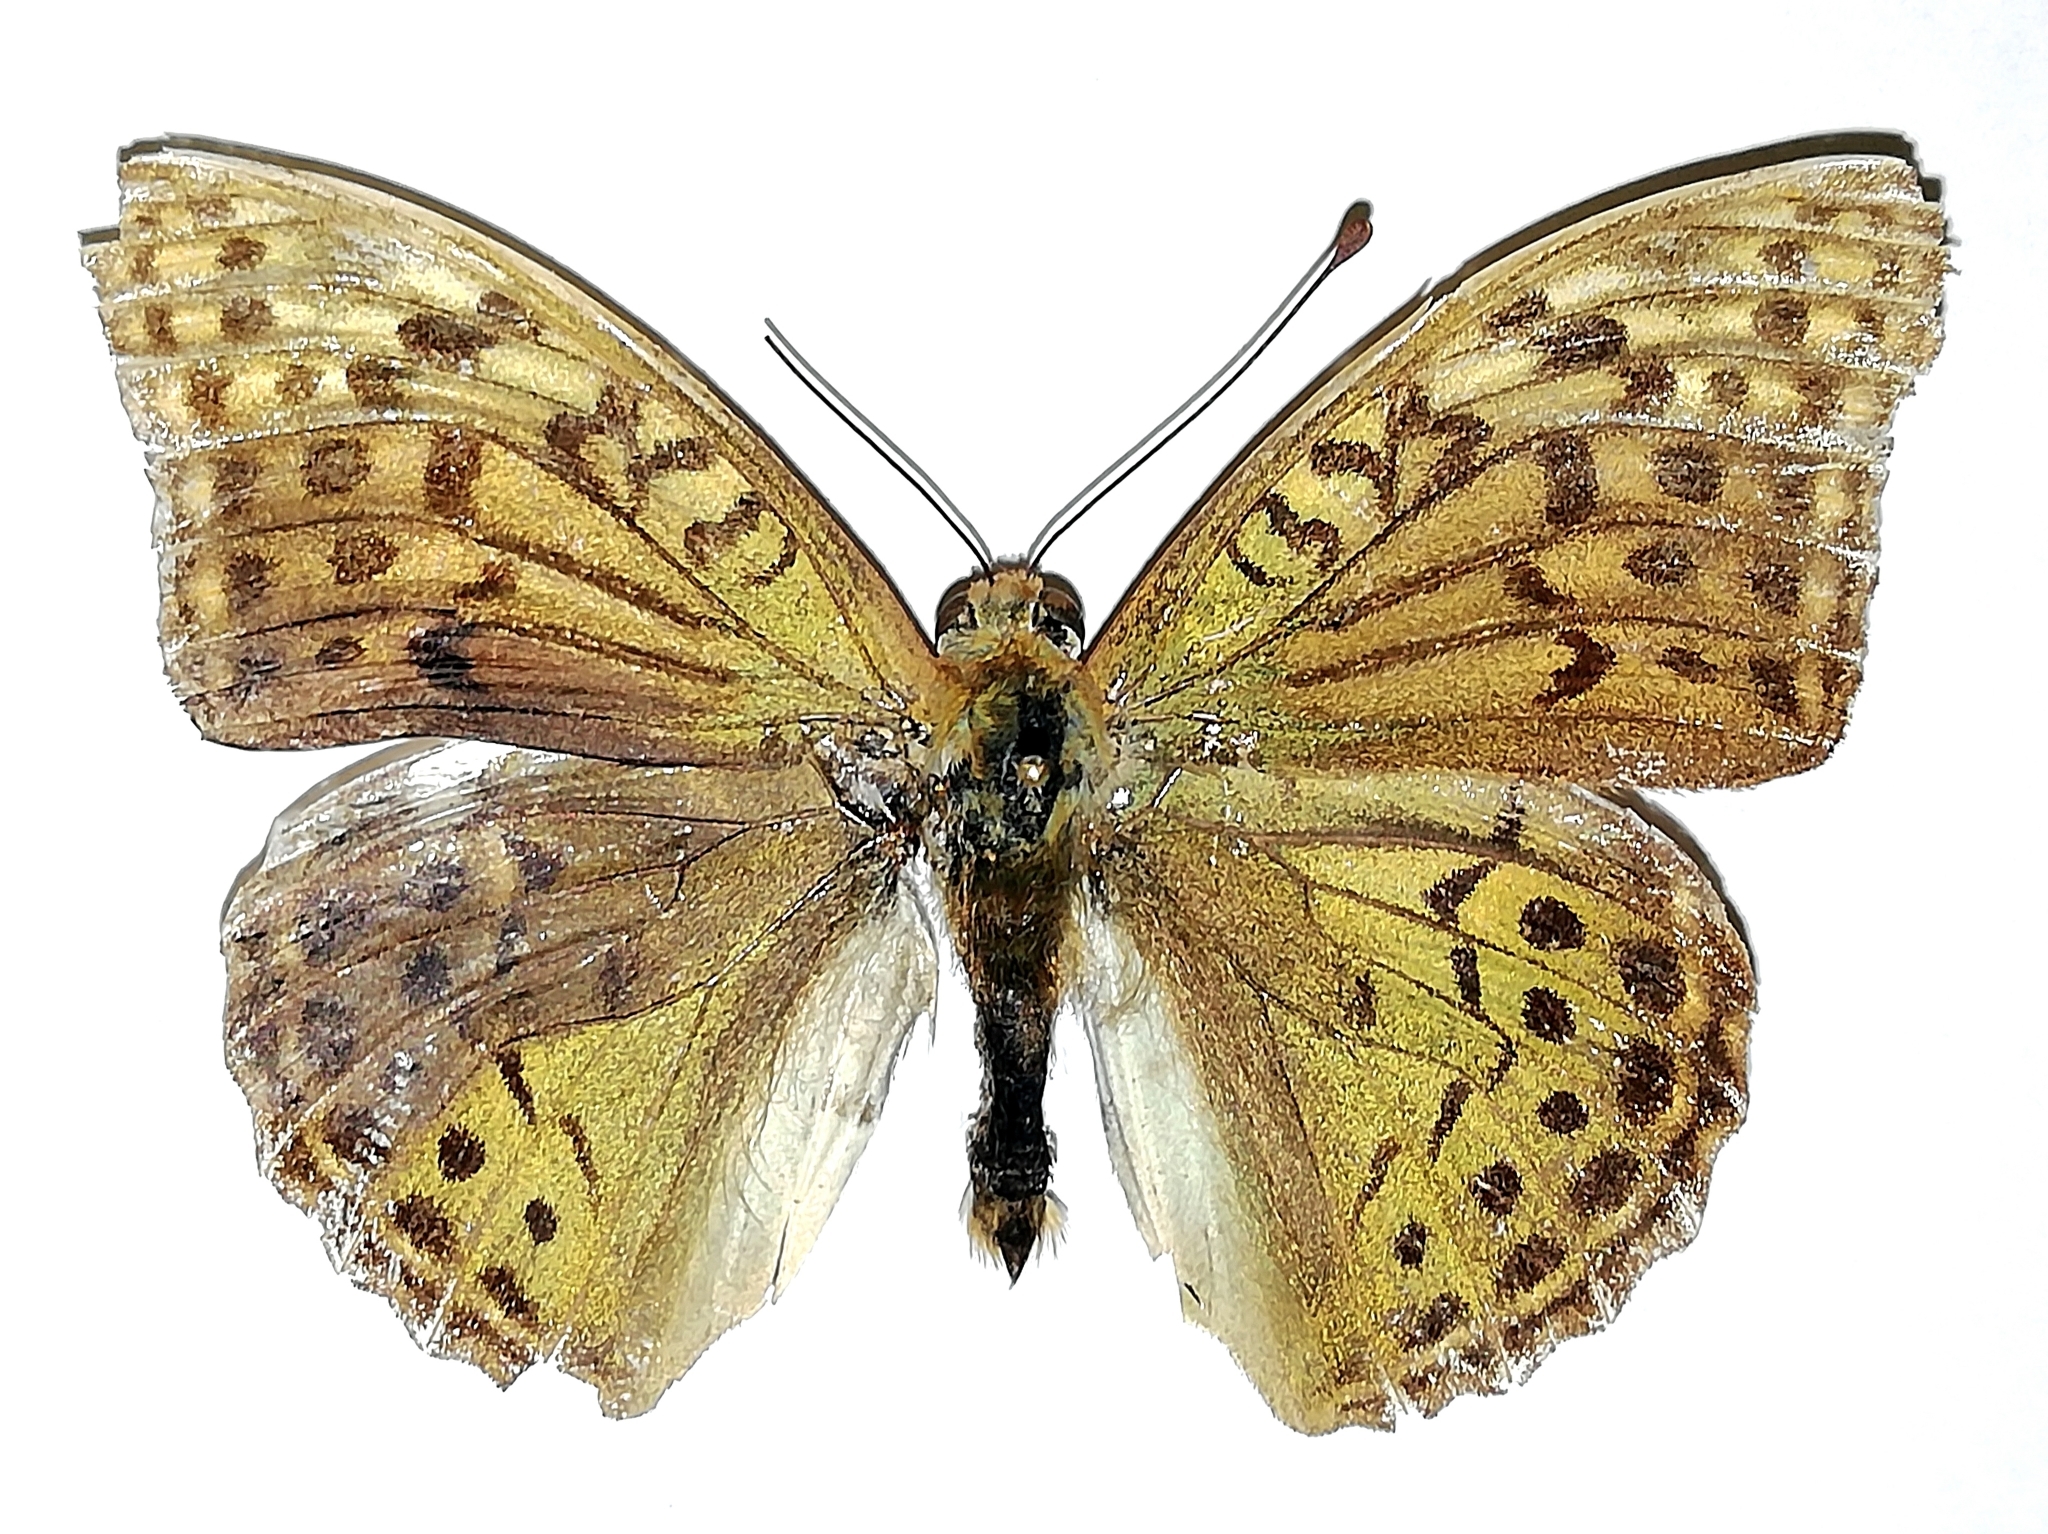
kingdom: Animalia
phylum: Arthropoda
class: Insecta
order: Lepidoptera
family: Nymphalidae
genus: Damora
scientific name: Damora pandora
